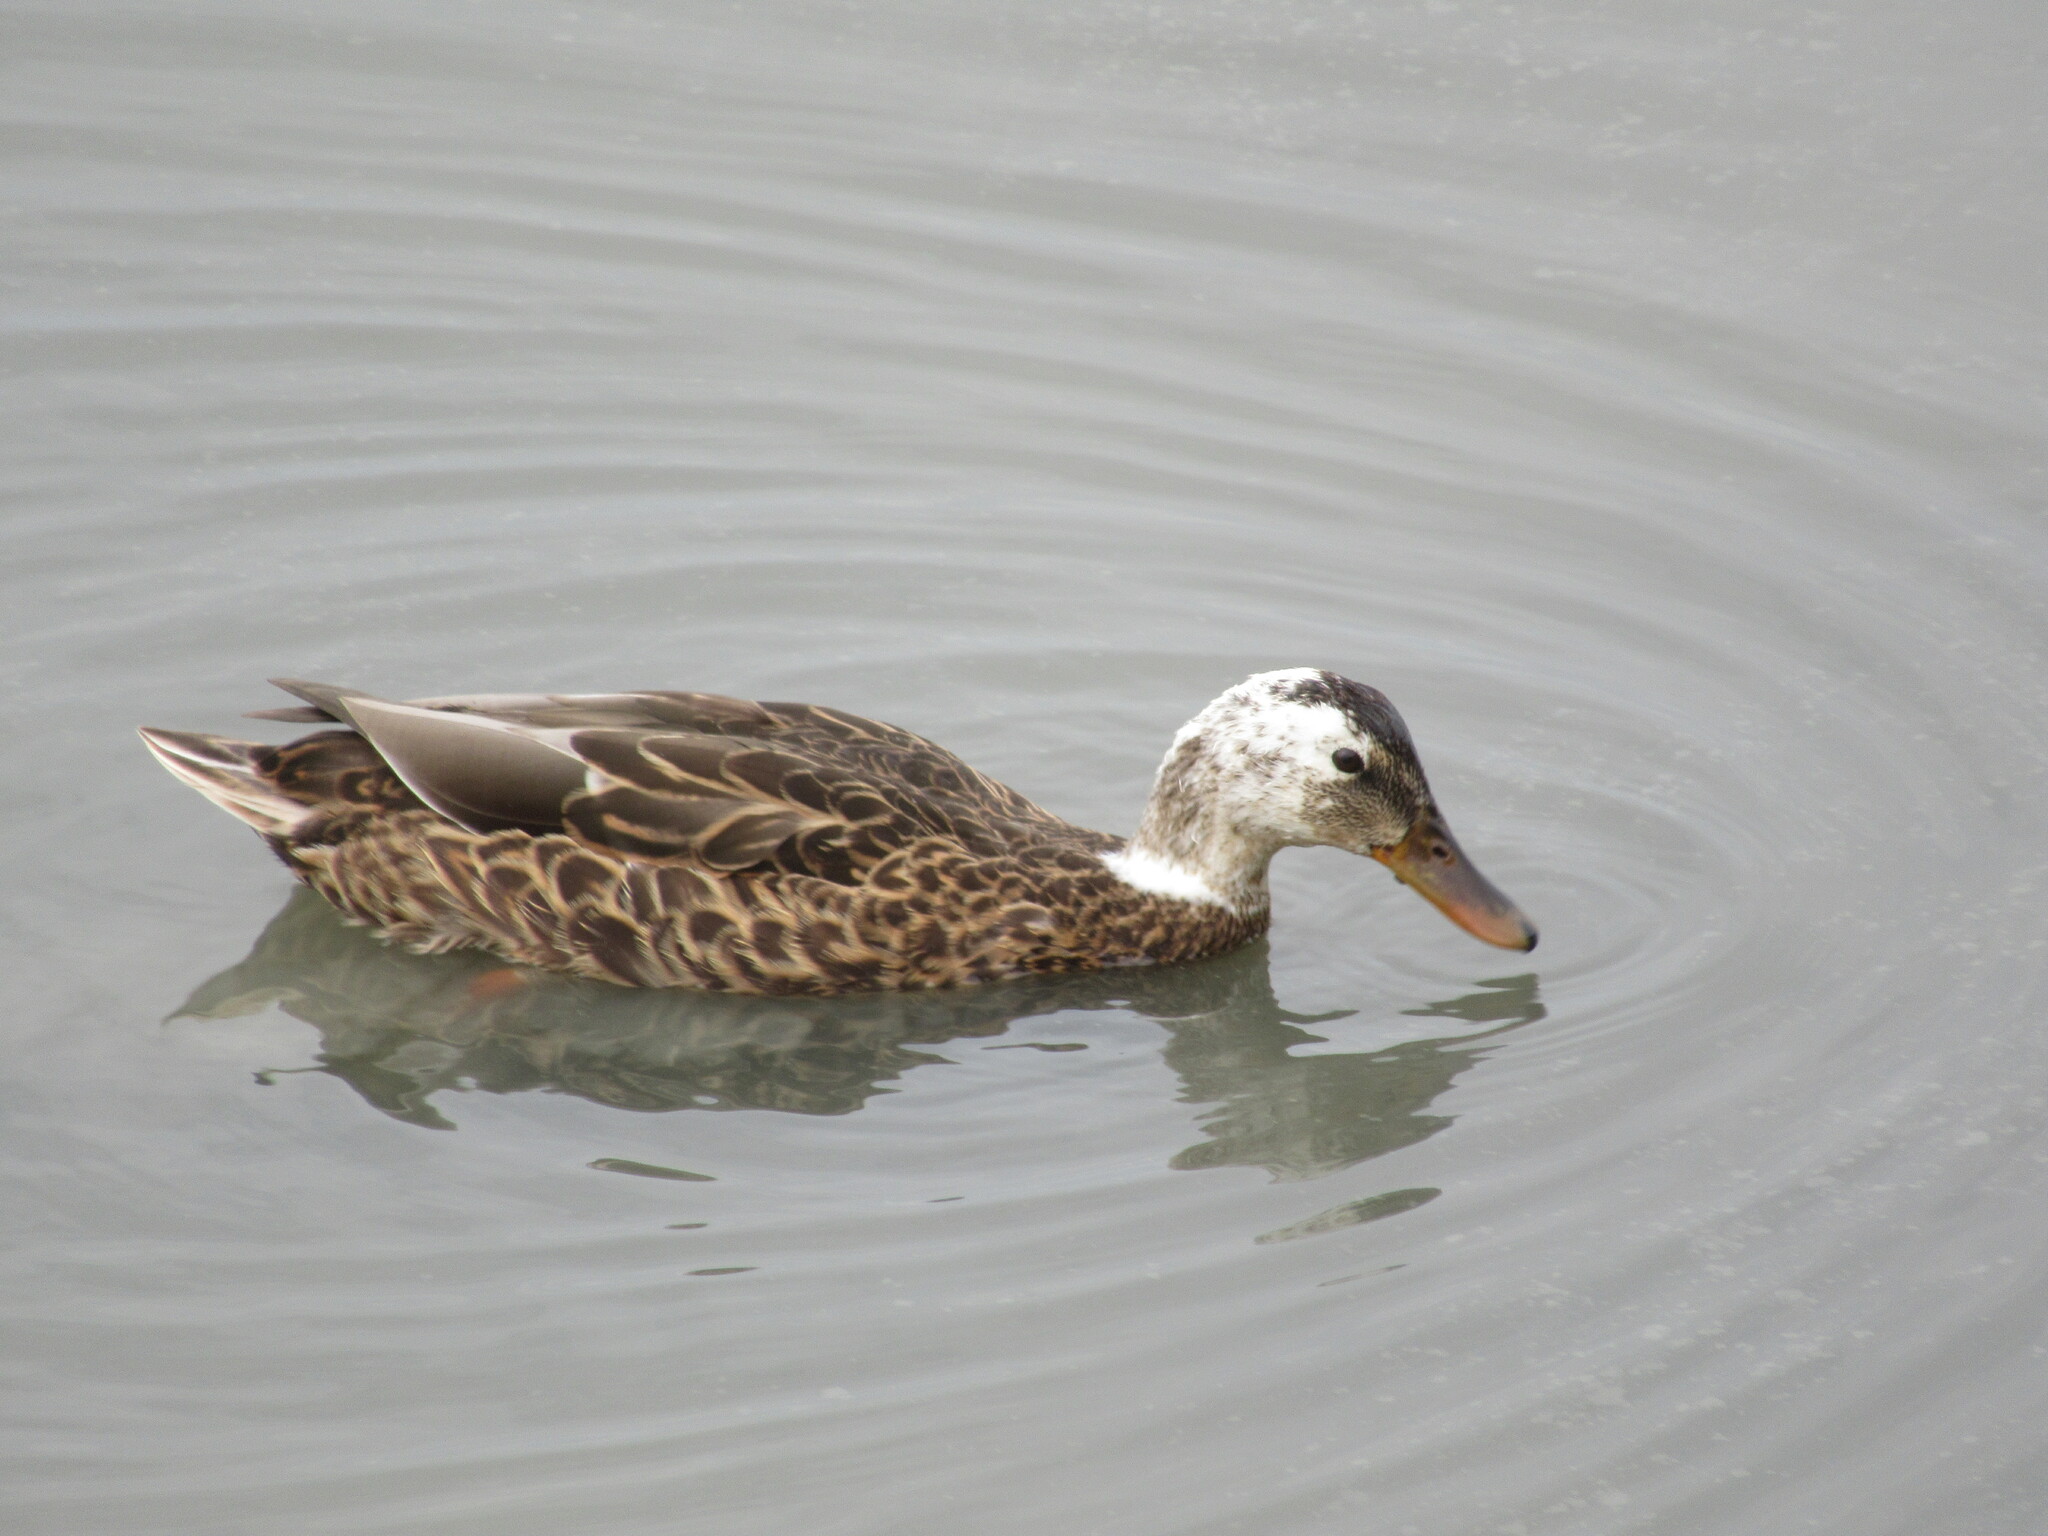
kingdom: Animalia
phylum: Chordata
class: Aves
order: Anseriformes
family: Anatidae
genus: Anas
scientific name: Anas platyrhynchos
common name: Mallard
